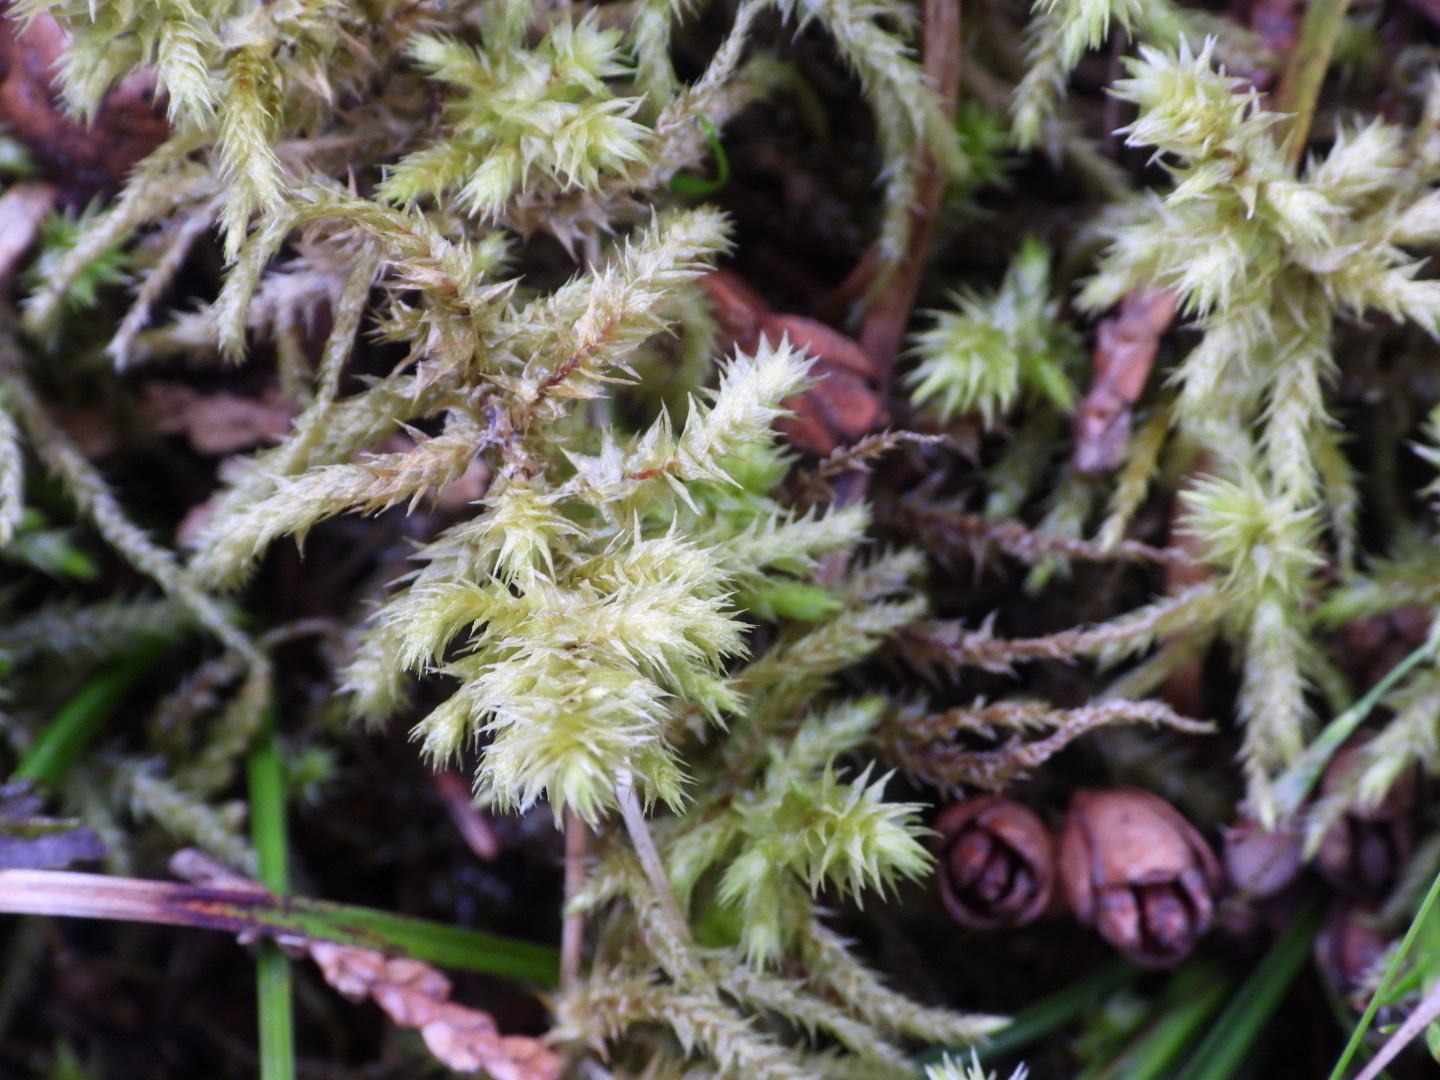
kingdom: Plantae
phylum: Bryophyta
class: Bryopsida
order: Hypnales
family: Hylocomiaceae
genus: Hylocomiadelphus
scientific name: Hylocomiadelphus triquetrus
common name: Rough goose neck moss
